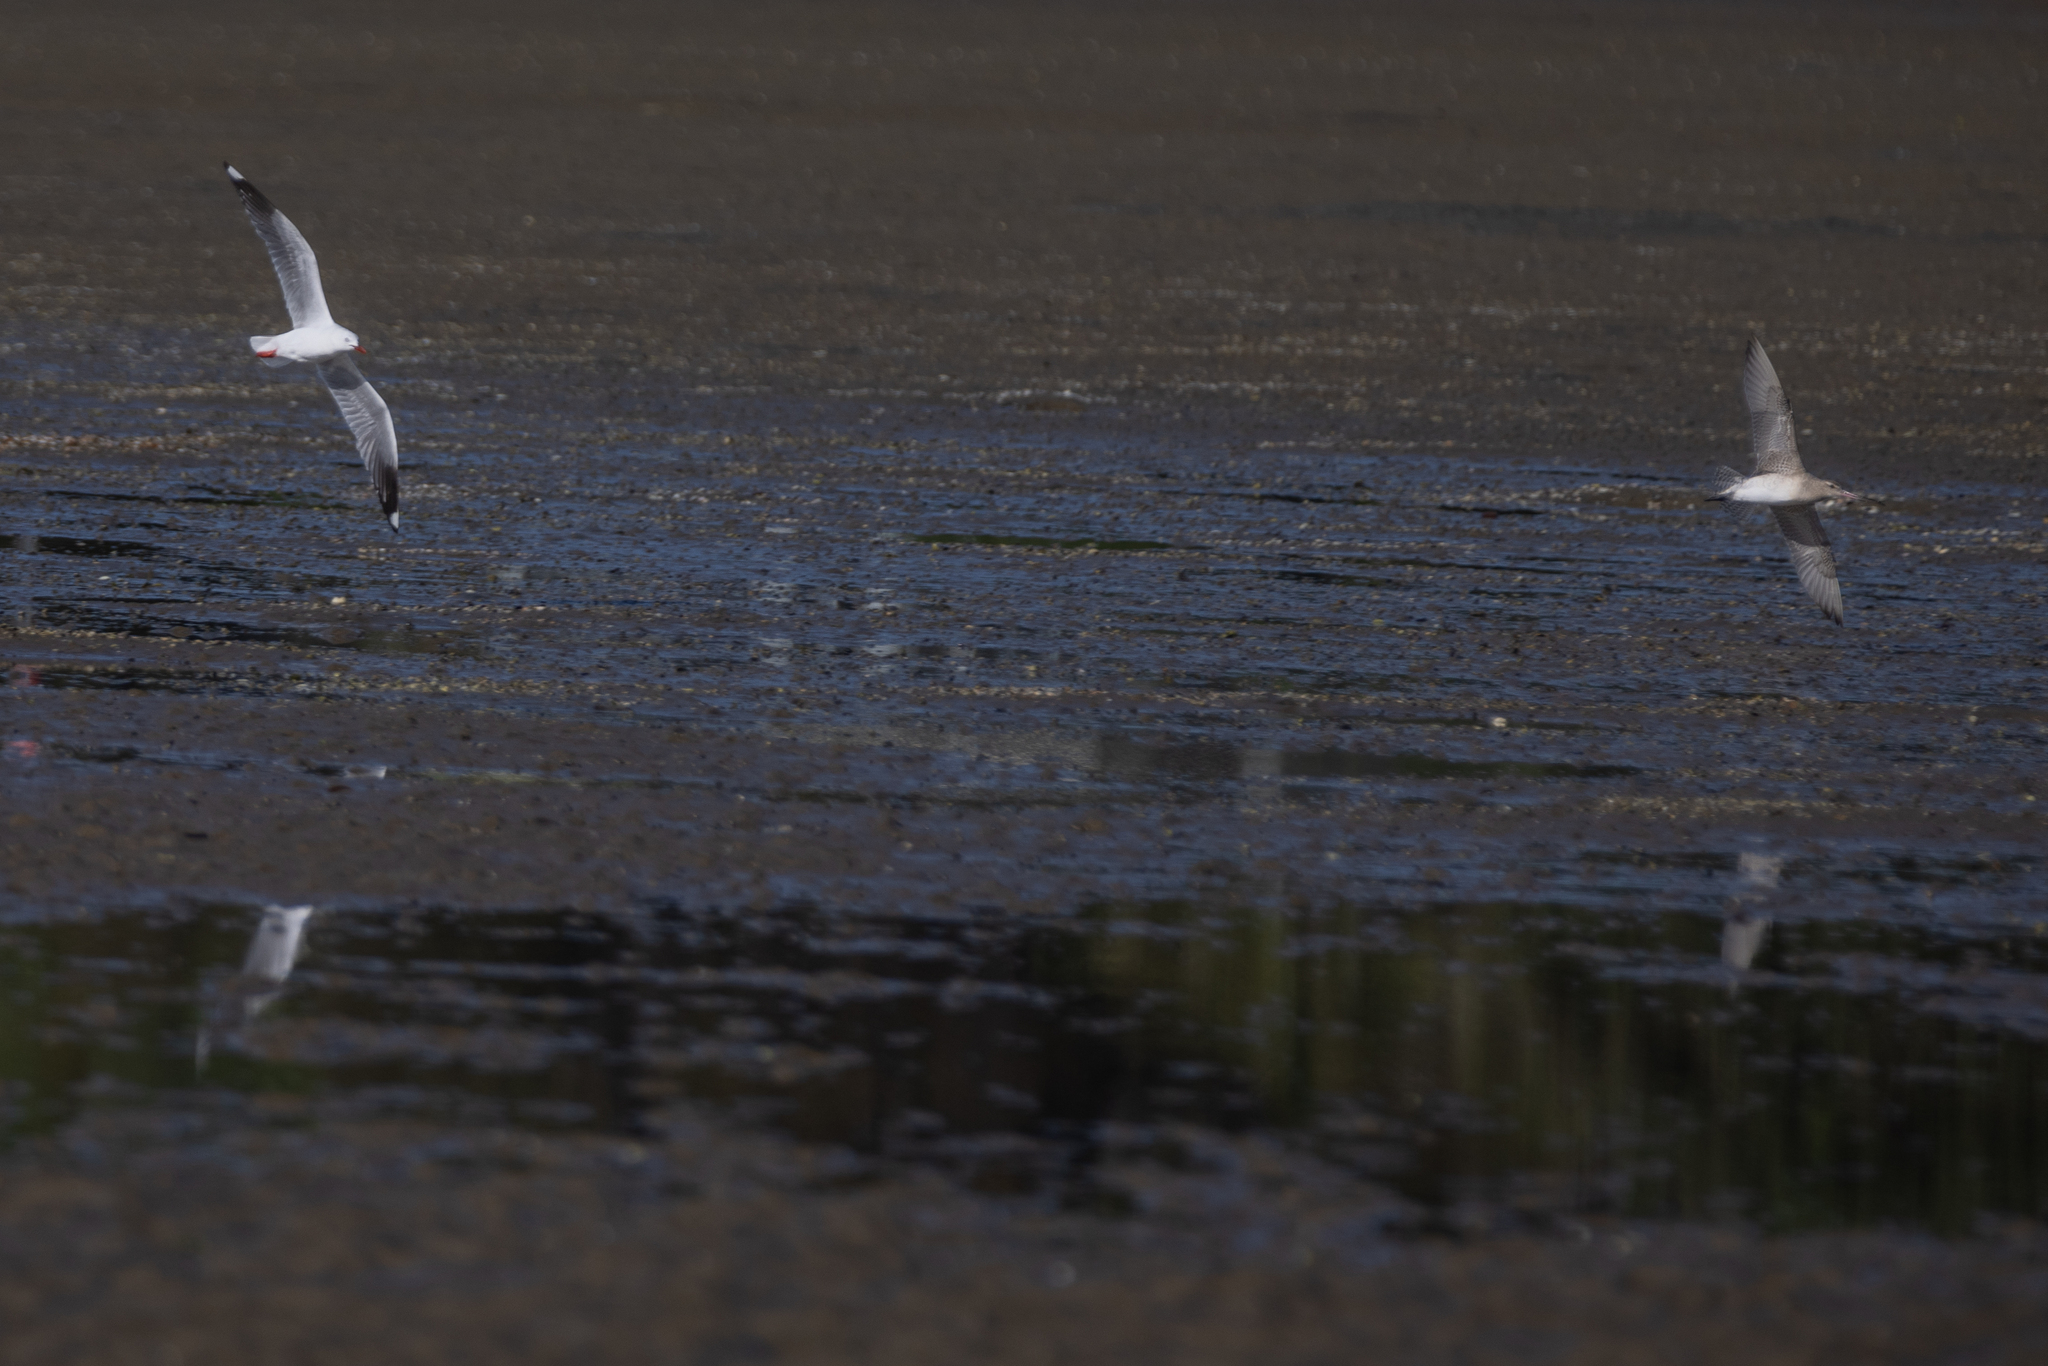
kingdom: Animalia
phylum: Chordata
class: Aves
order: Charadriiformes
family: Laridae
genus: Chroicocephalus
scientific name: Chroicocephalus novaehollandiae
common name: Silver gull
